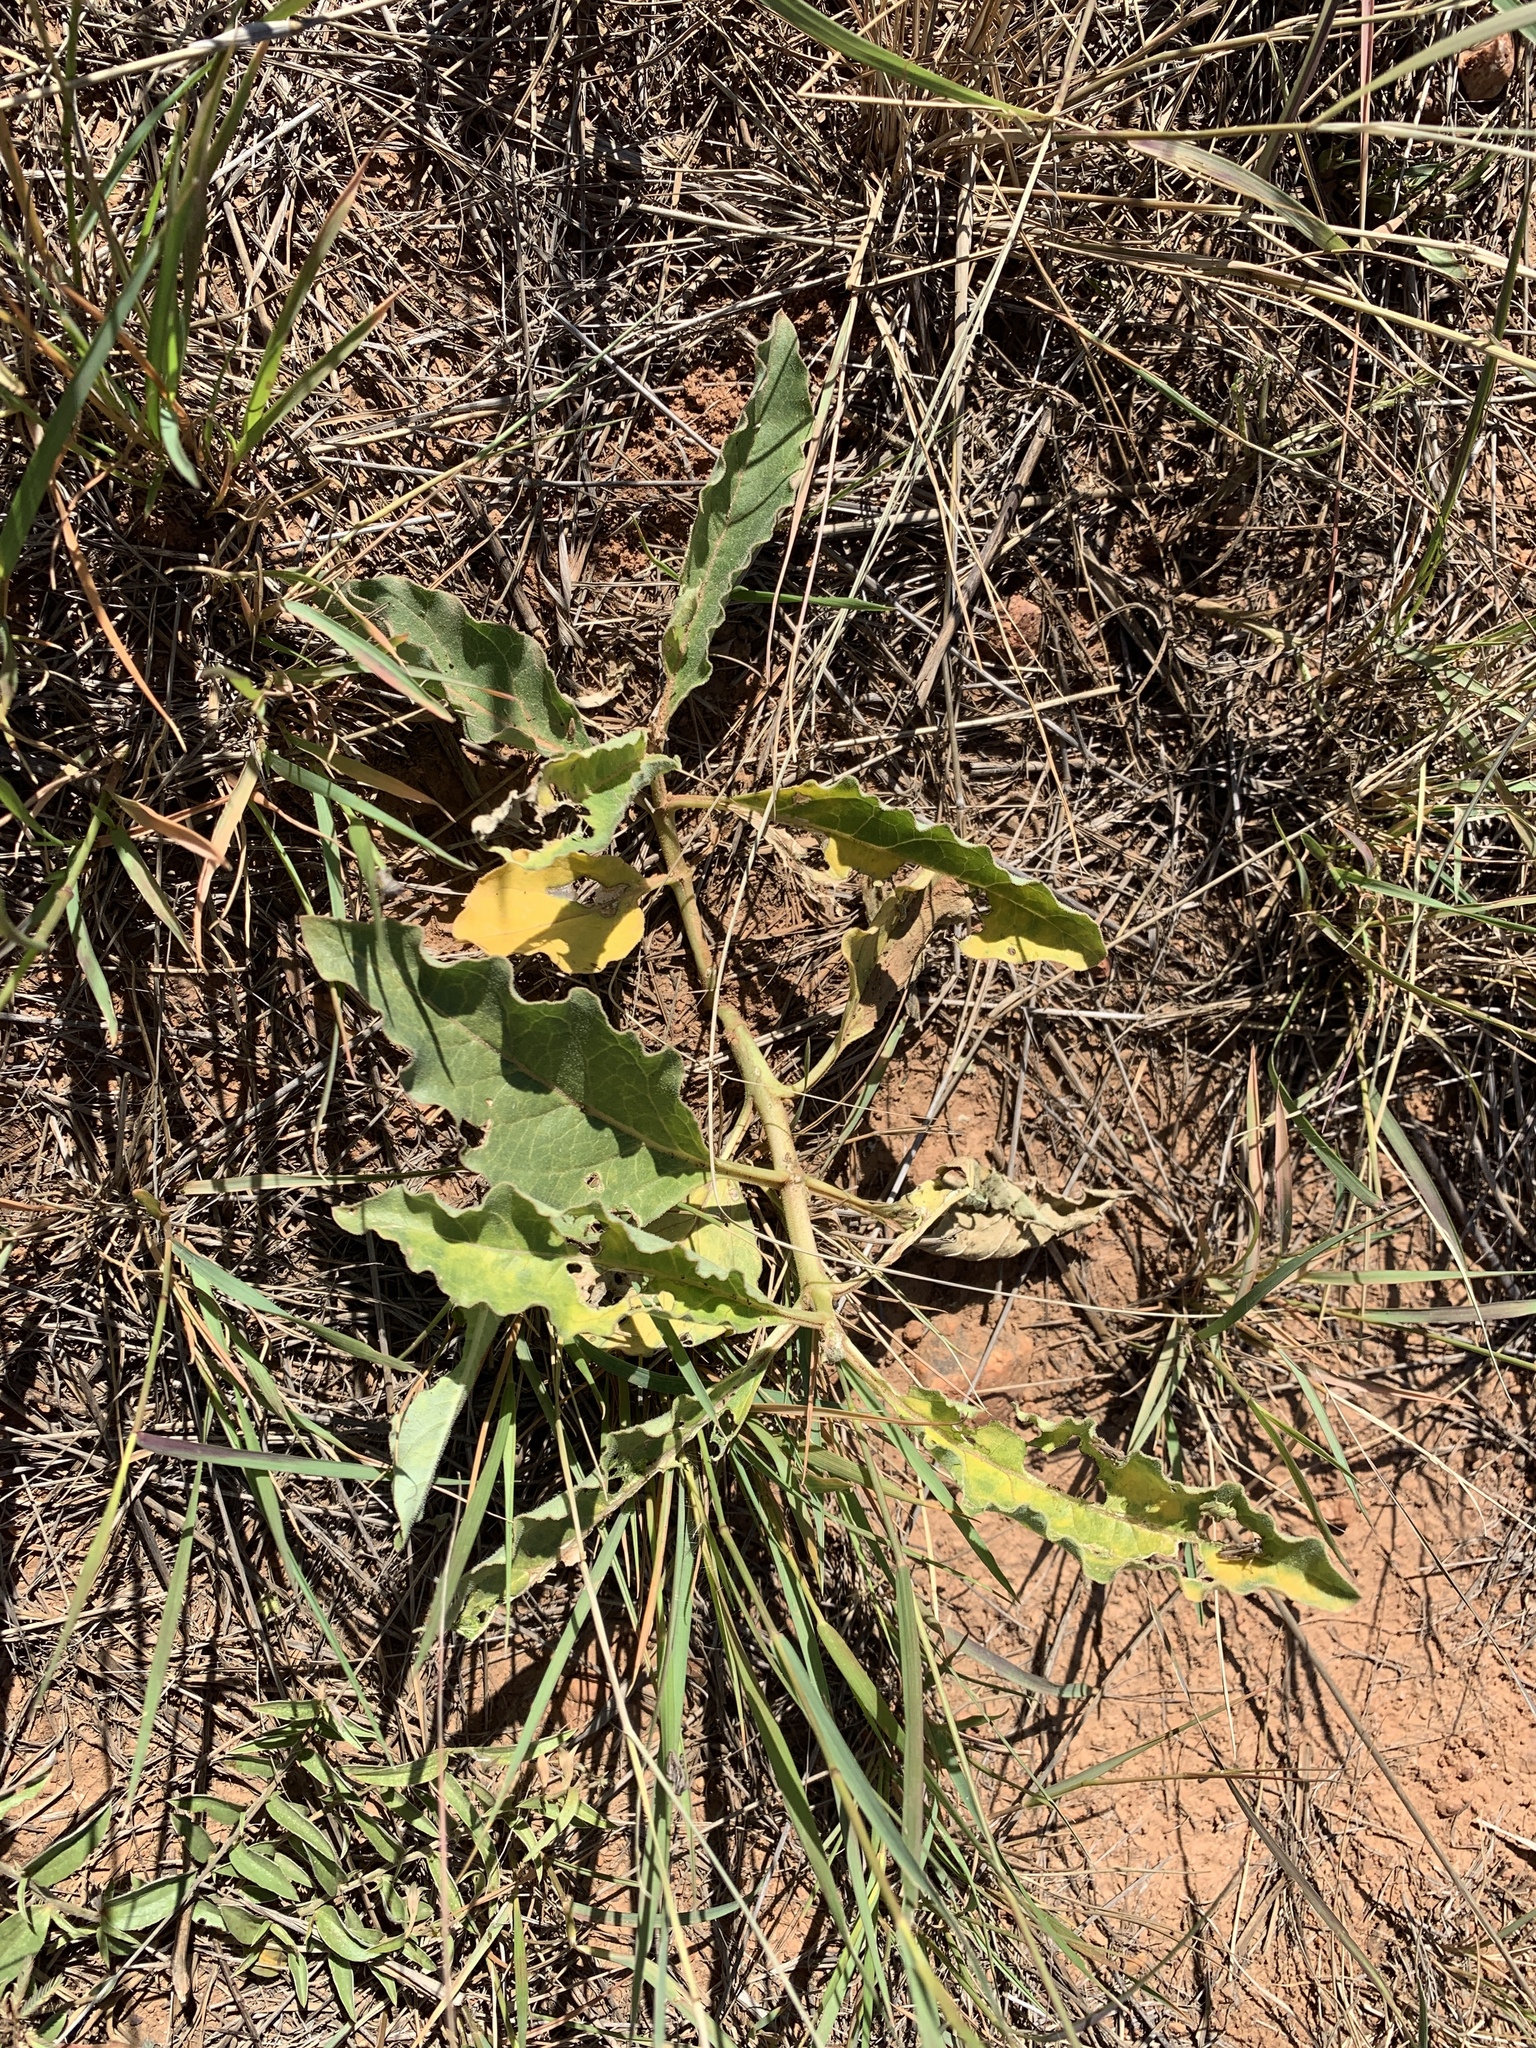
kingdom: Plantae
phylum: Tracheophyta
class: Magnoliopsida
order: Gentianales
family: Apocynaceae
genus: Asclepias
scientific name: Asclepias nyctaginifolia
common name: Mojave milkweed
